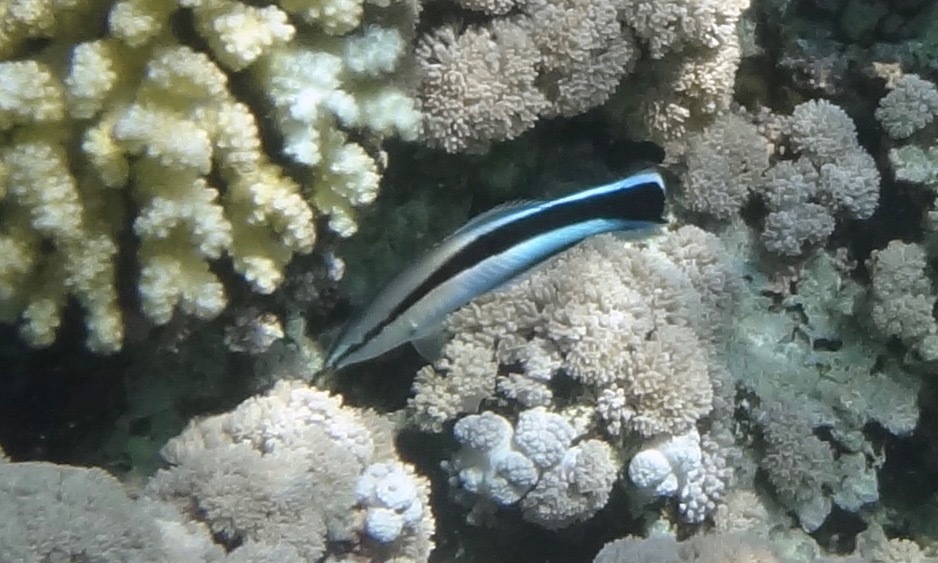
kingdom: Animalia
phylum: Chordata
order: Perciformes
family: Labridae
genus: Labroides
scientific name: Labroides dimidiatus
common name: Blue diesel wrasse
